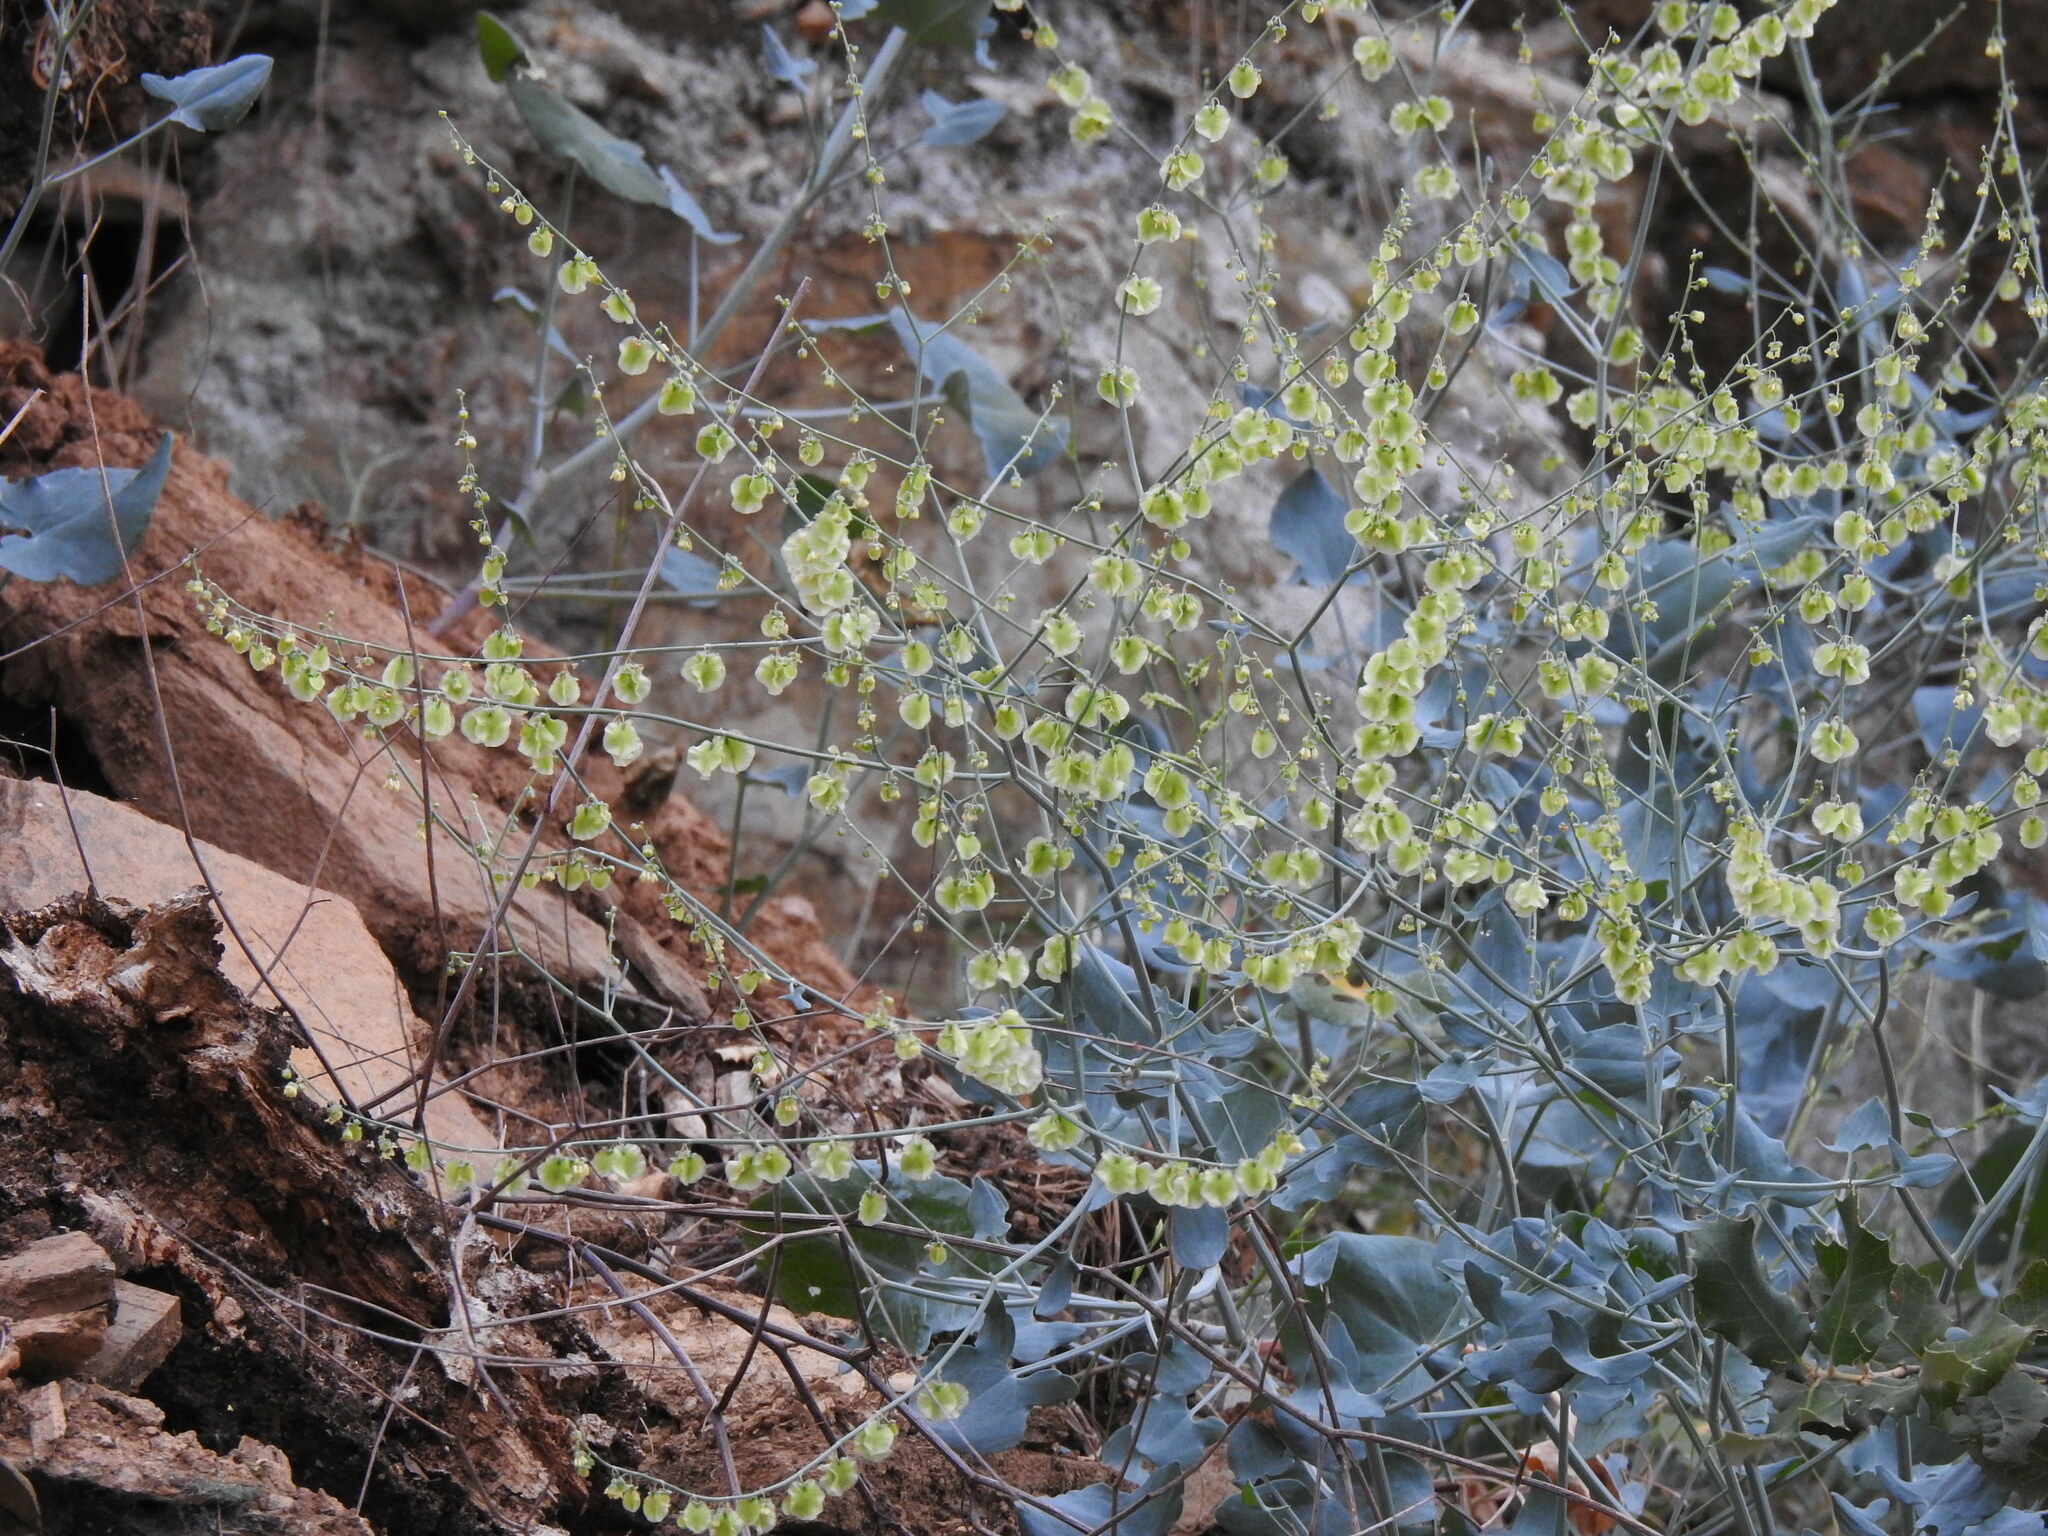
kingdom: Plantae
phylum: Tracheophyta
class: Magnoliopsida
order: Caryophyllales
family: Polygonaceae
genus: Rumex
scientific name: Rumex induratus
